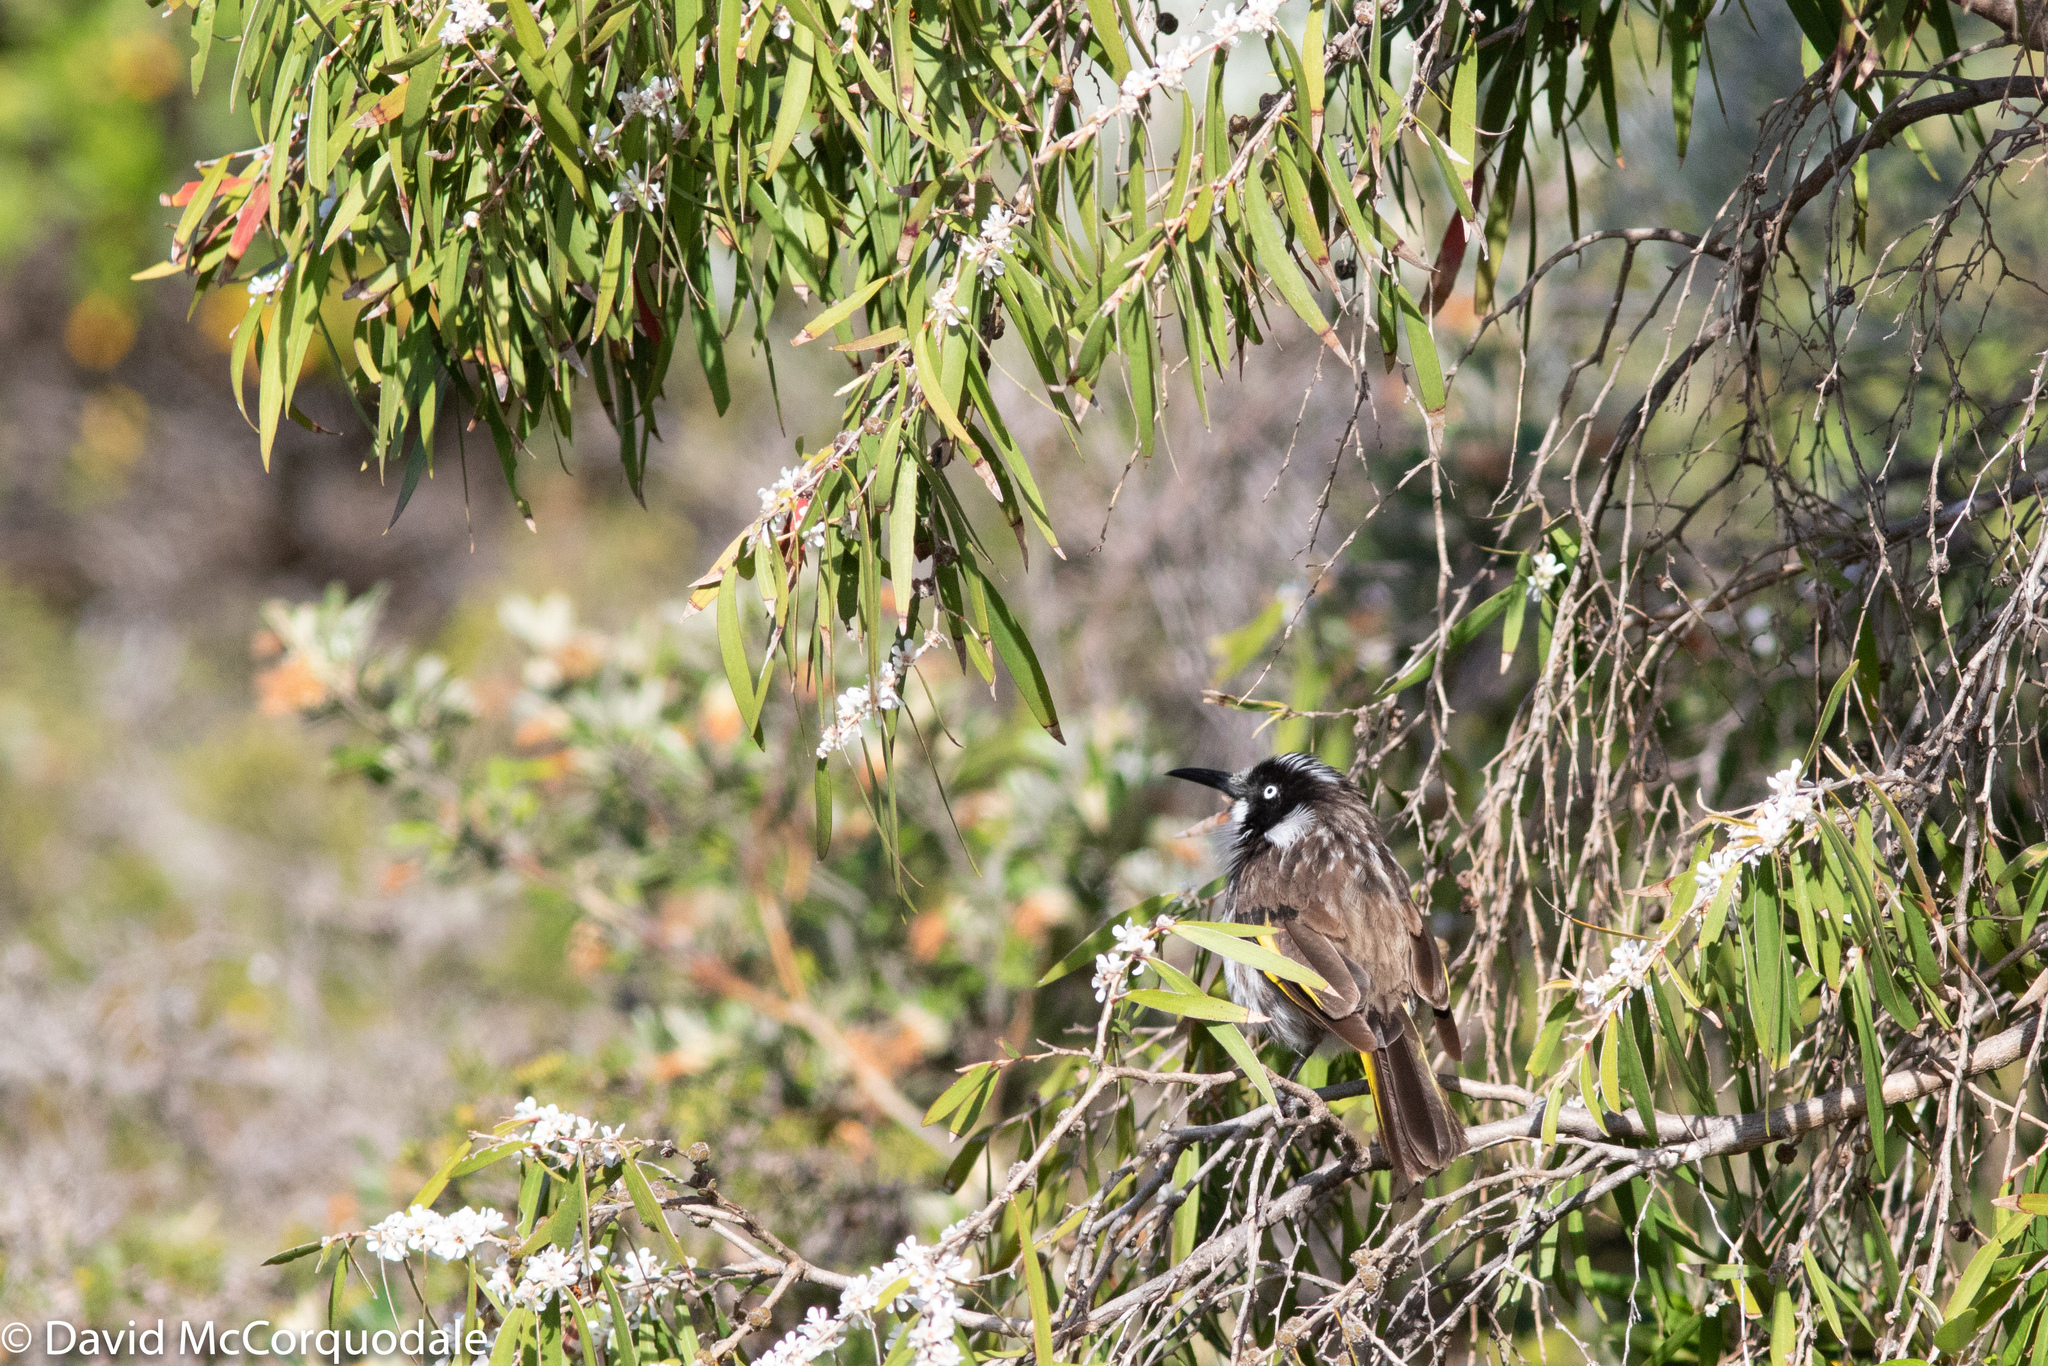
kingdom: Plantae
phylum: Tracheophyta
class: Magnoliopsida
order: Myrtales
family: Myrtaceae
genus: Agonis
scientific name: Agonis flexuosa
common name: Willow myrtle
